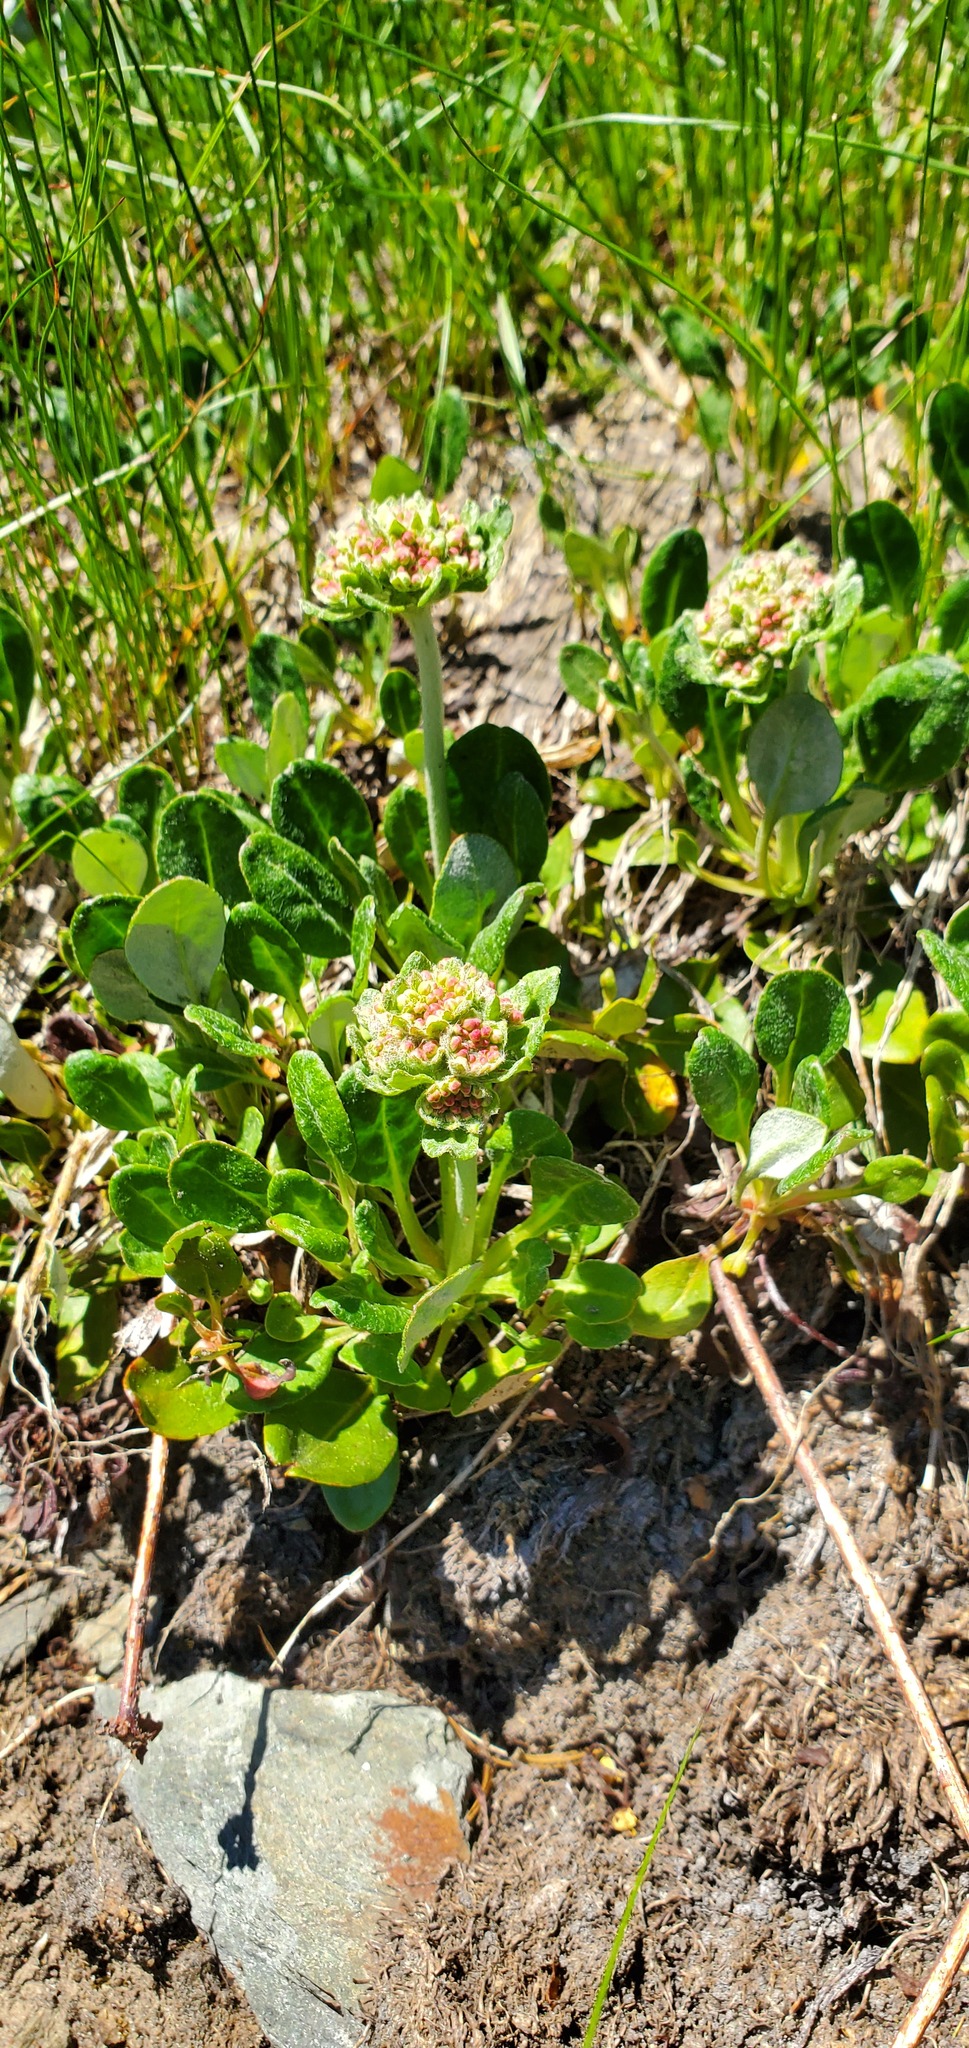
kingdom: Plantae
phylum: Tracheophyta
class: Magnoliopsida
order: Caryophyllales
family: Polygonaceae
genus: Eriogonum
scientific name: Eriogonum umbellatum
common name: Sulfur-buckwheat
